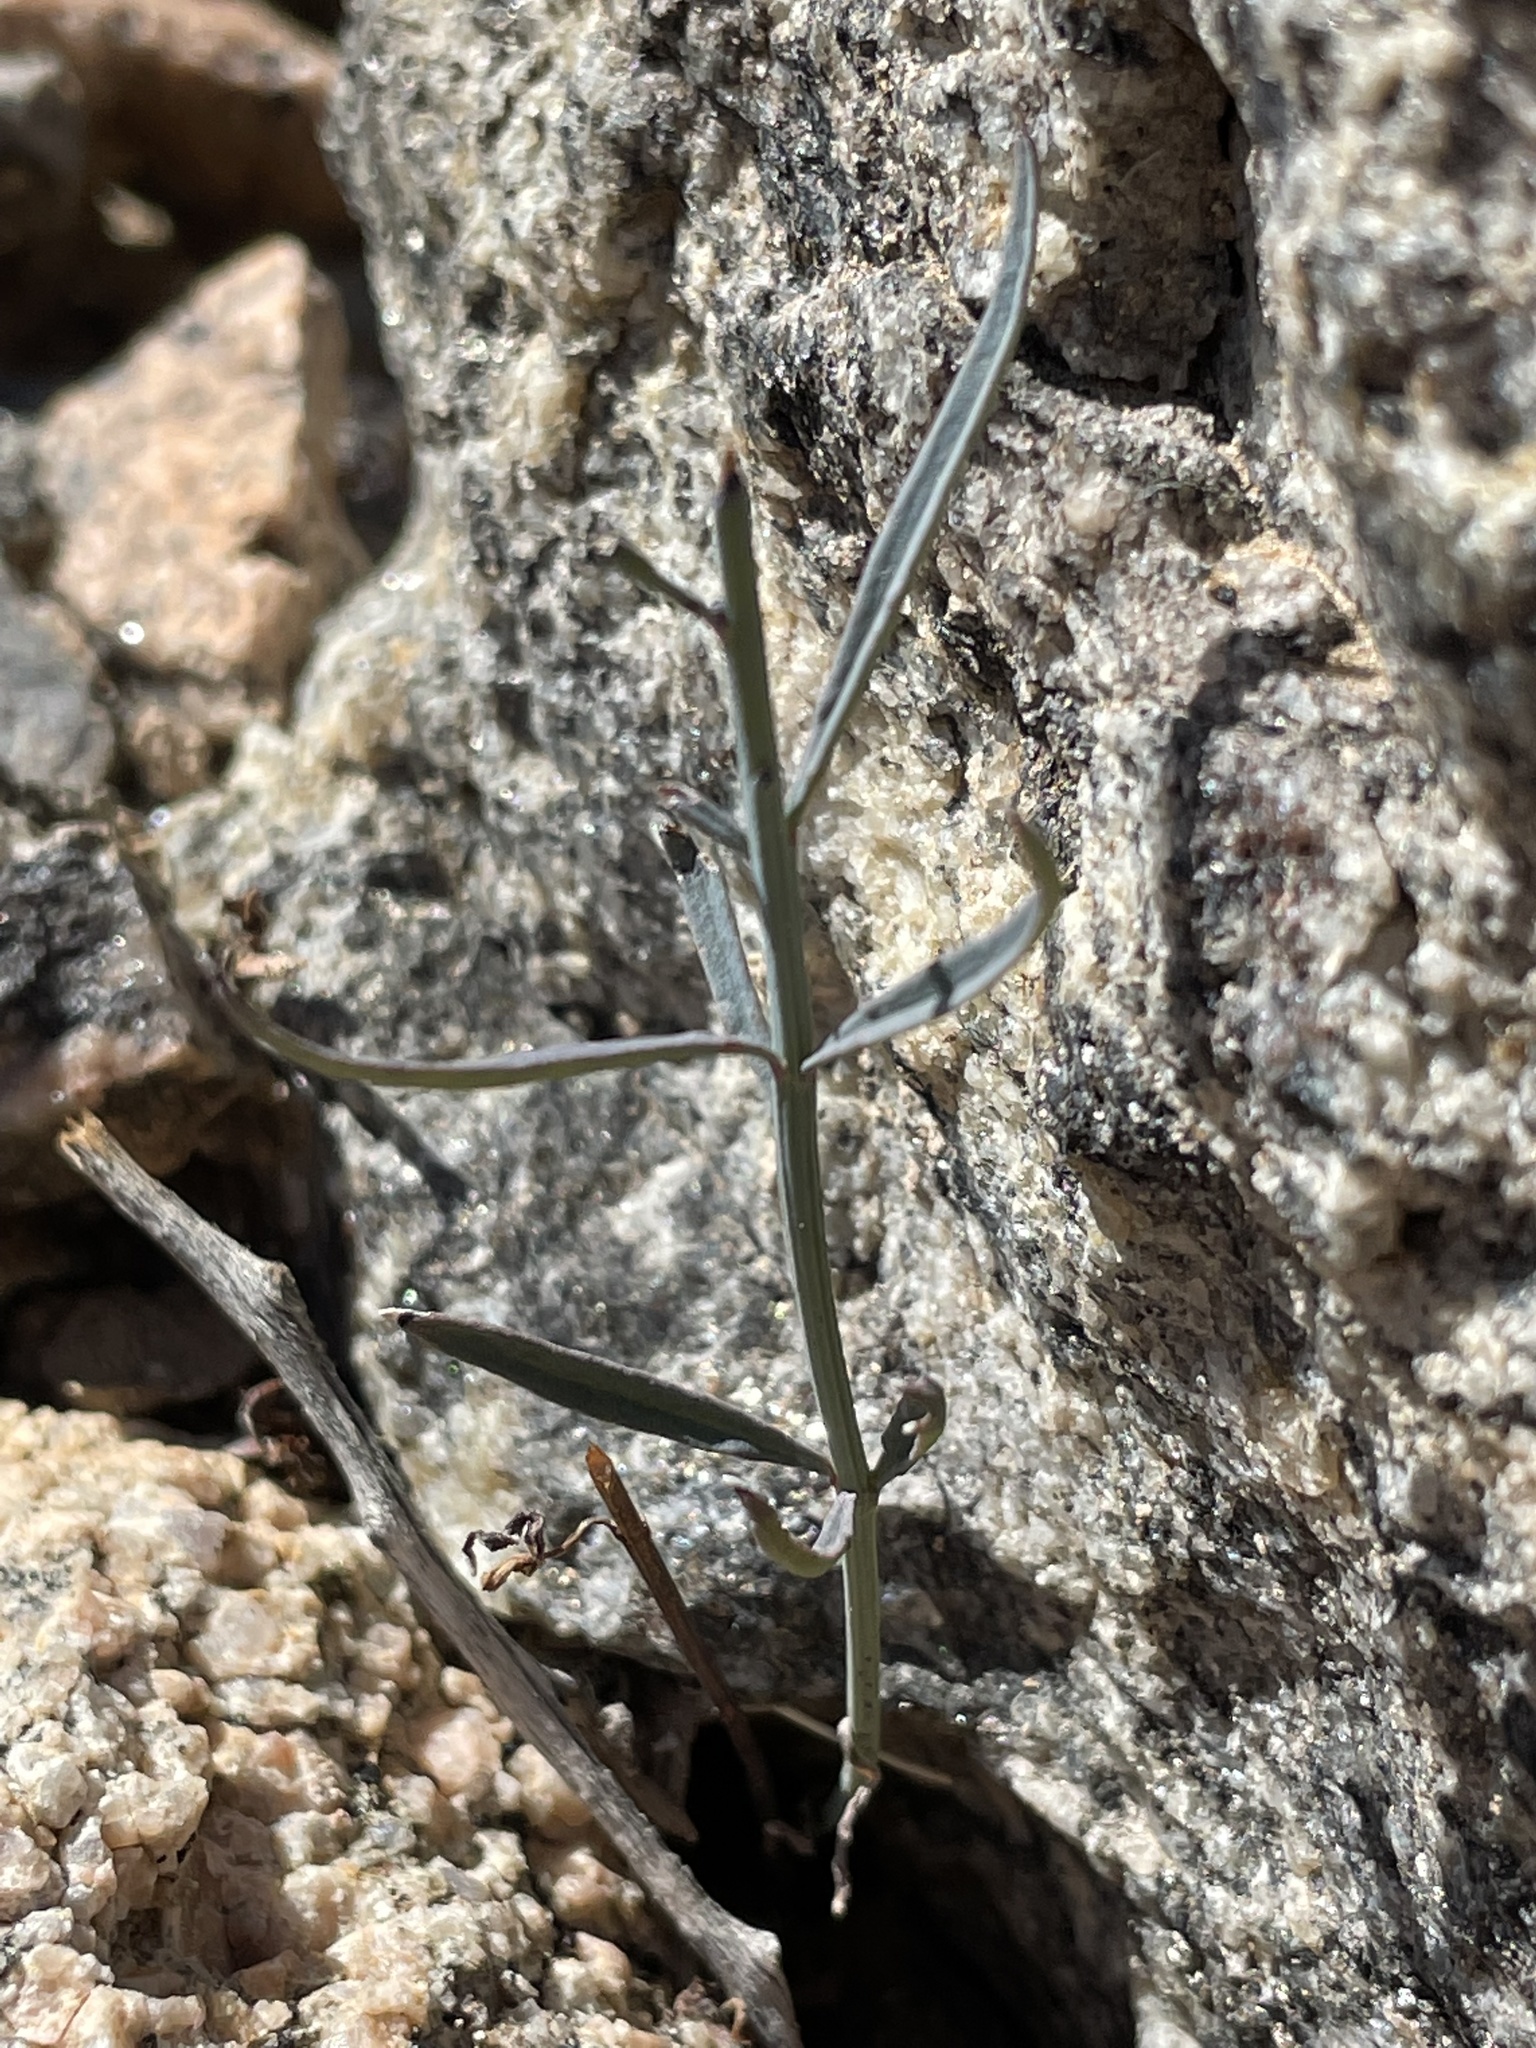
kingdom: Plantae
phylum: Tracheophyta
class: Magnoliopsida
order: Asterales
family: Asteraceae
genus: Porophyllum
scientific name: Porophyllum gracile
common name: Odora
